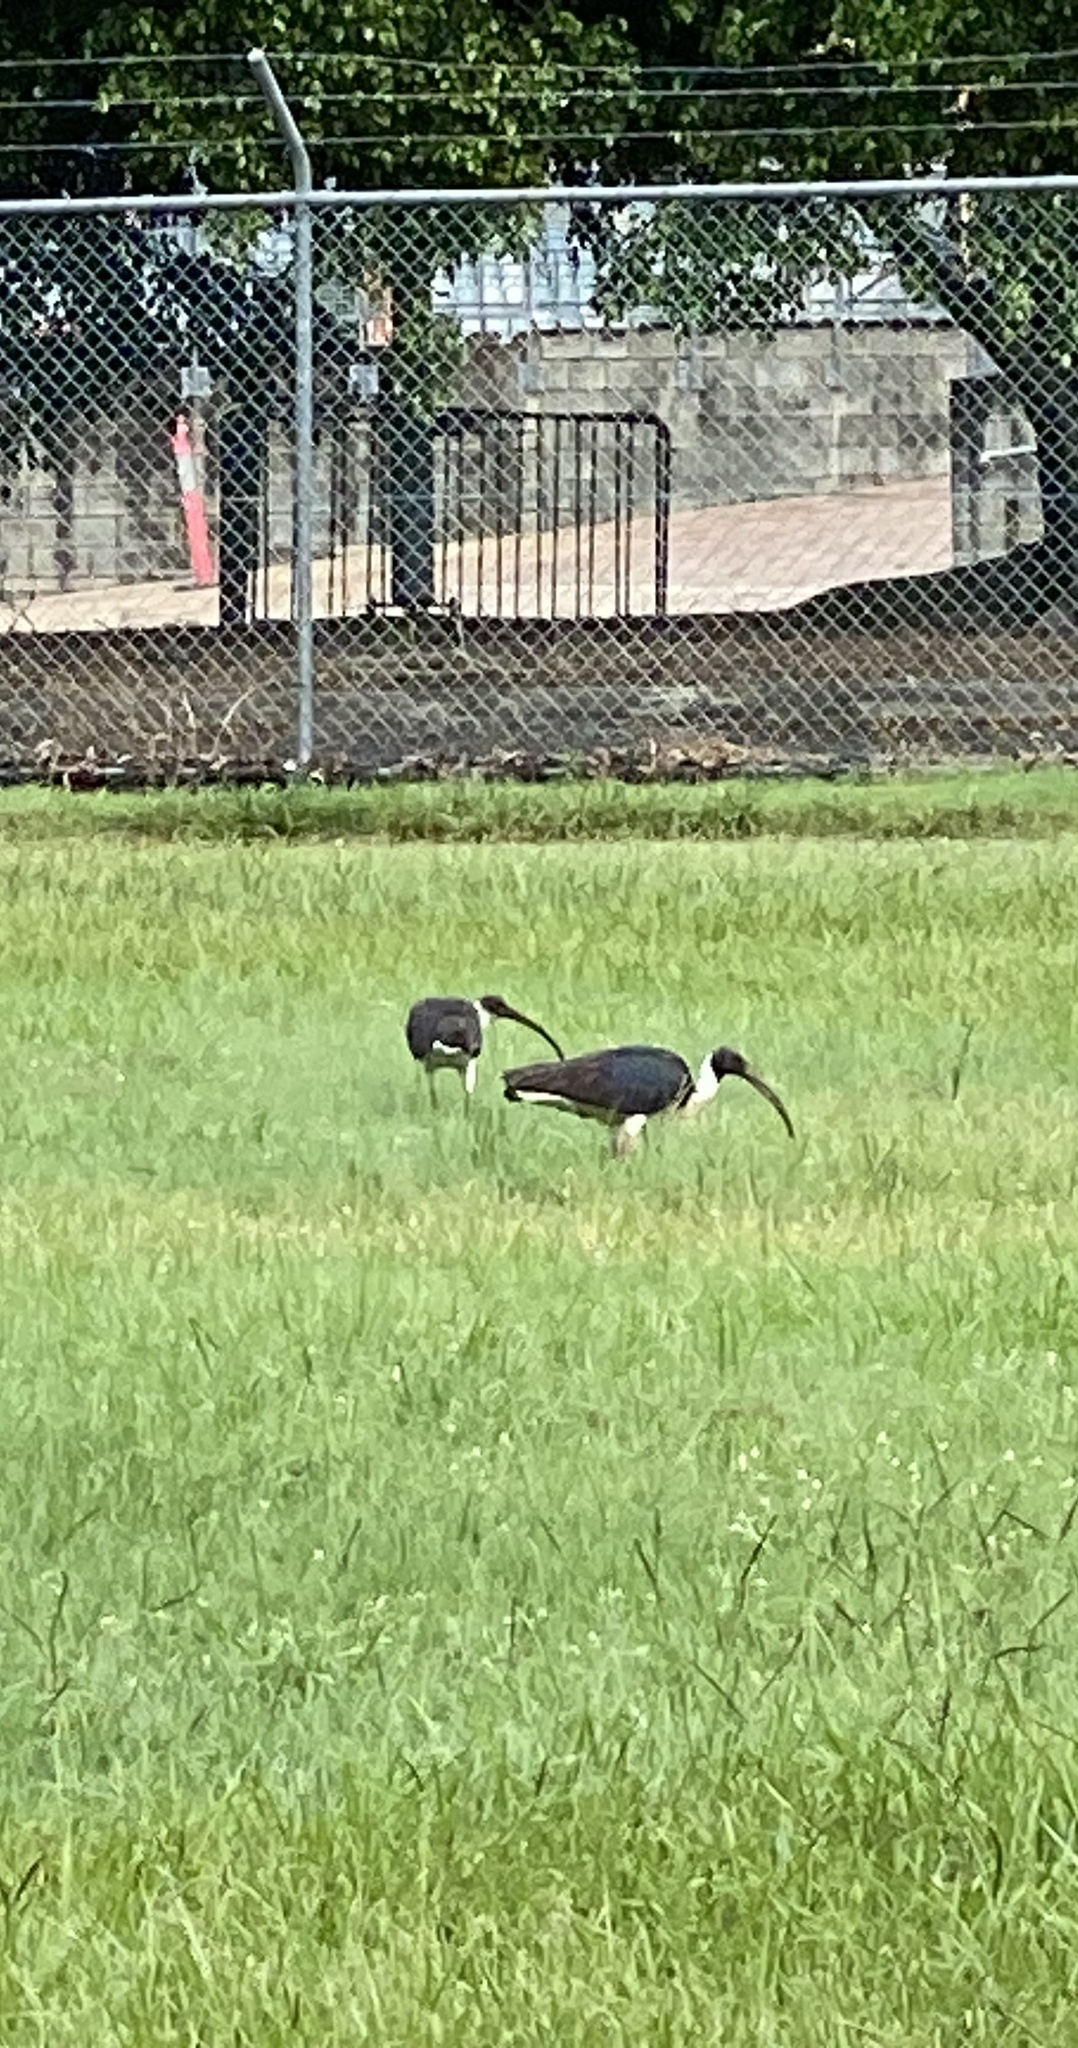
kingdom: Animalia
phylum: Chordata
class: Aves
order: Pelecaniformes
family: Threskiornithidae
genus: Threskiornis
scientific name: Threskiornis spinicollis
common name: Straw-necked ibis
